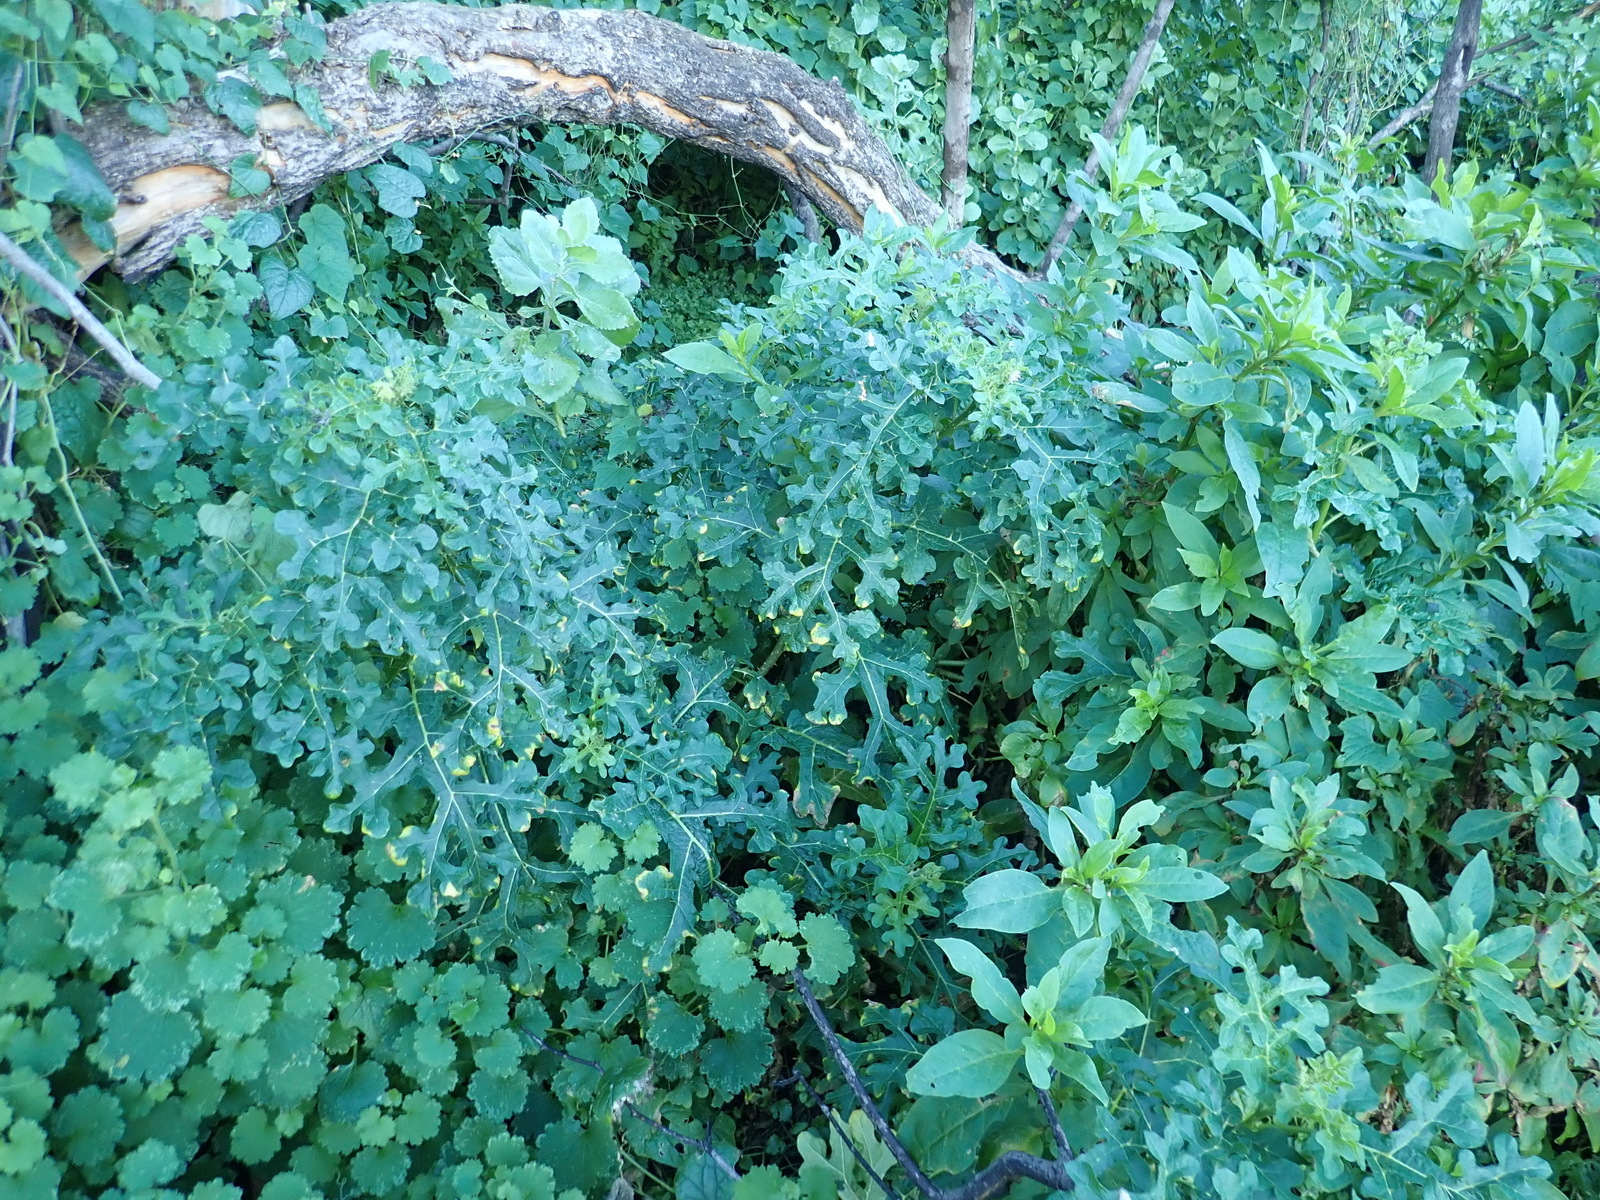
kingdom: Plantae
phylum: Tracheophyta
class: Magnoliopsida
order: Solanales
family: Solanaceae
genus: Solanum
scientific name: Solanum linnaeanum
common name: Nightshade
